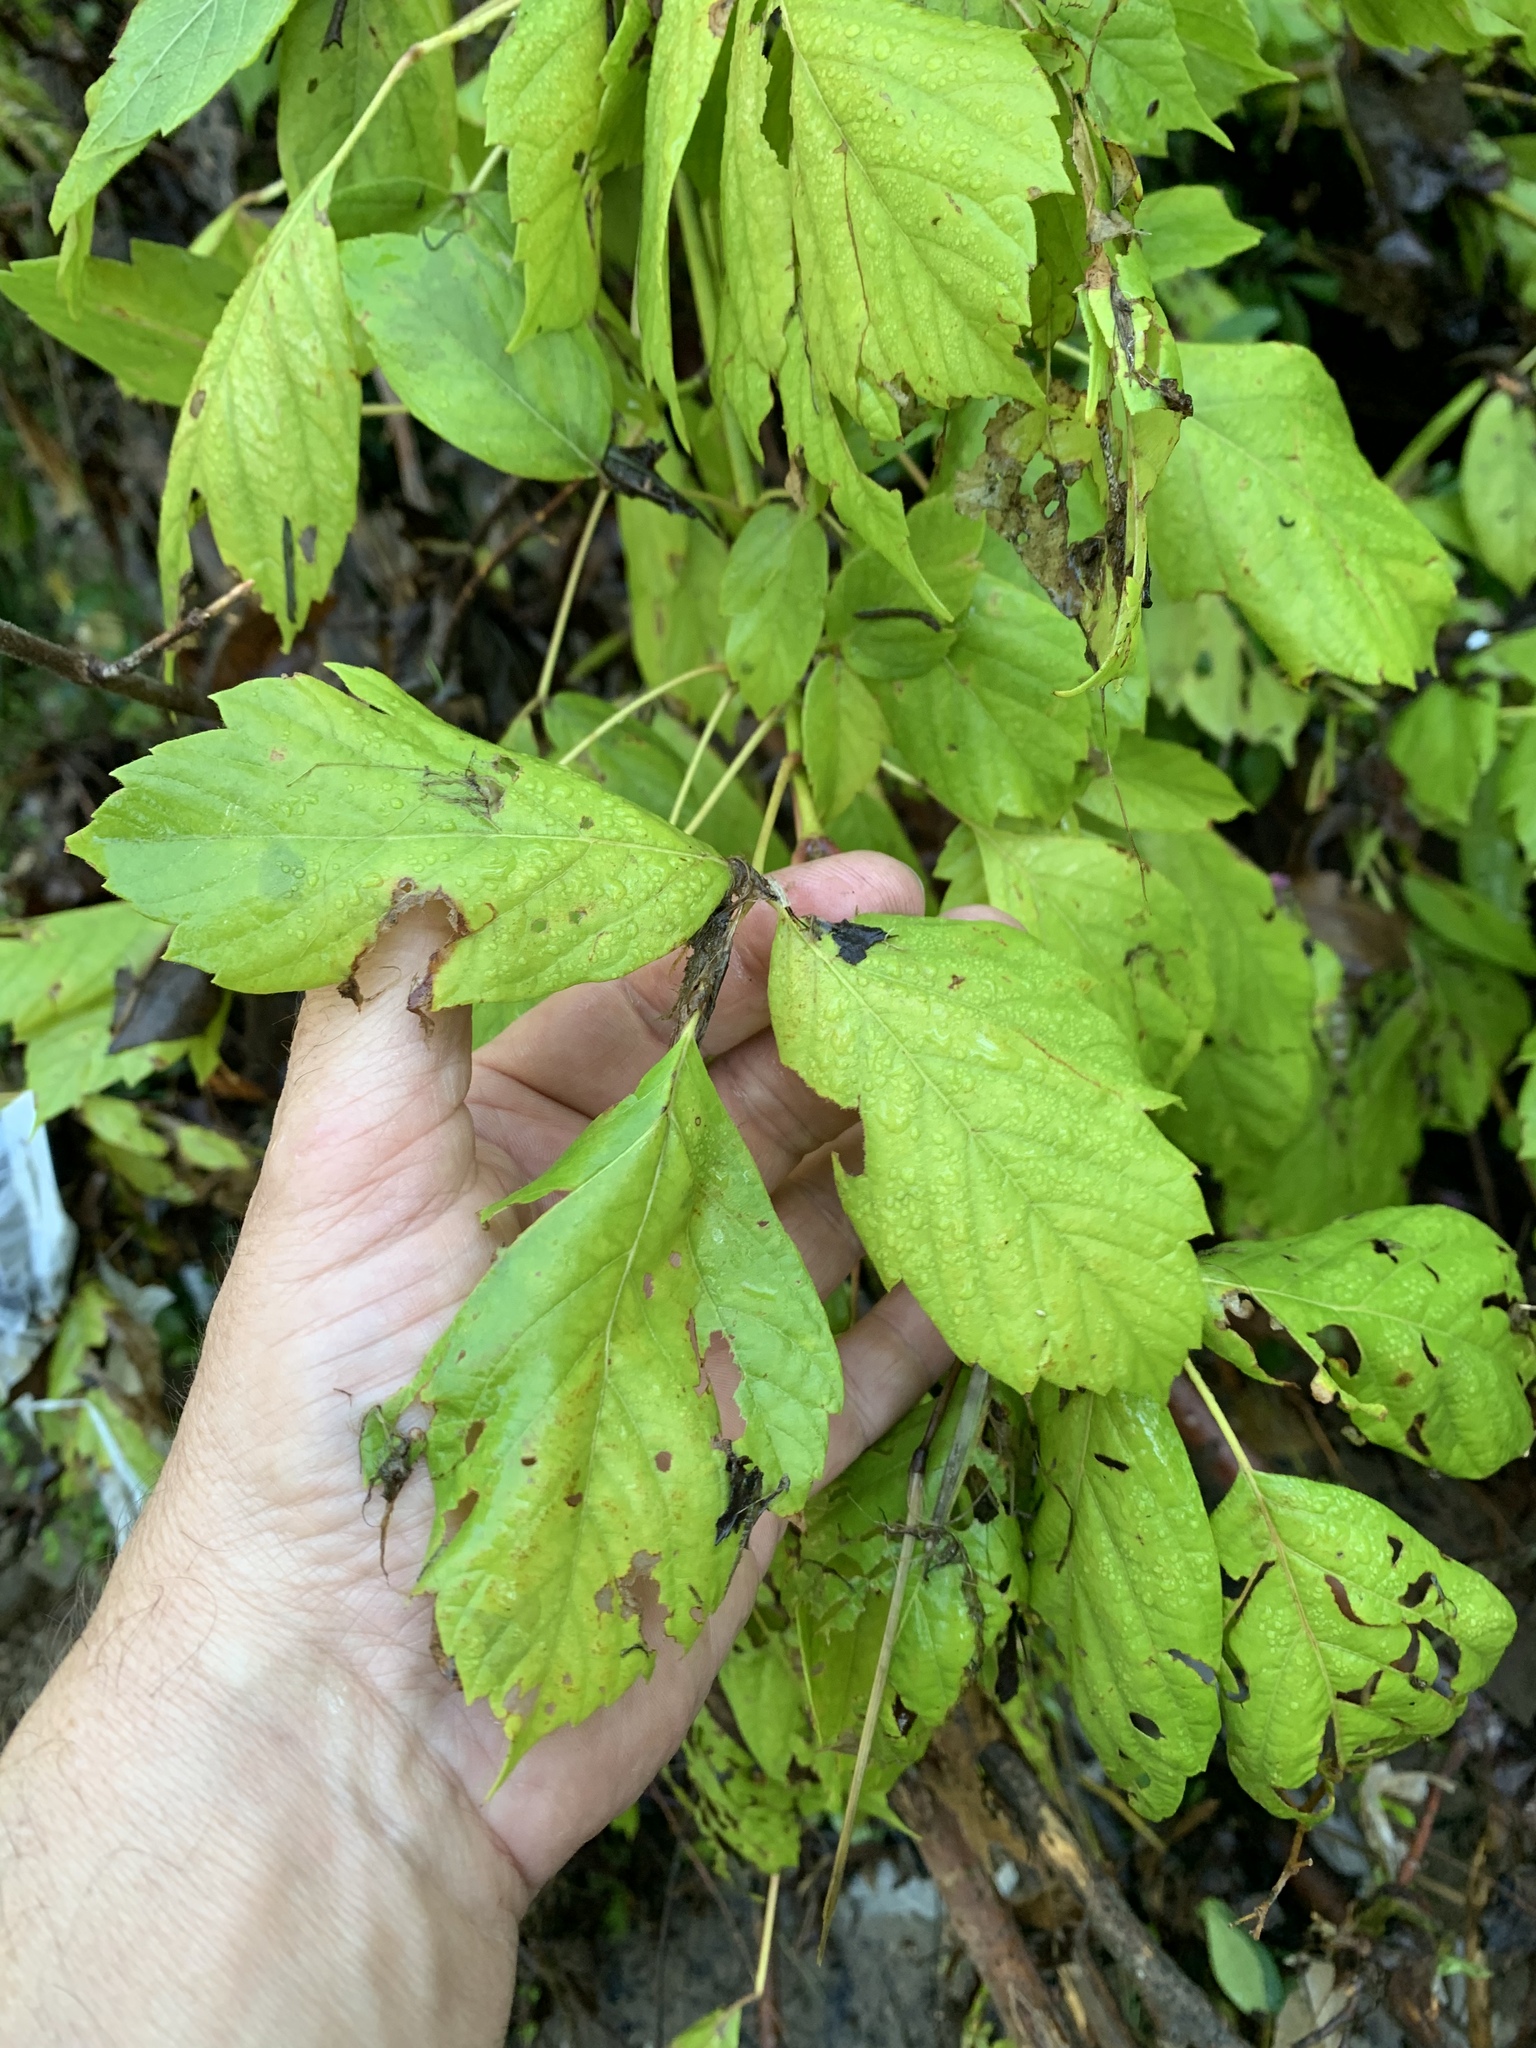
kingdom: Plantae
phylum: Tracheophyta
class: Magnoliopsida
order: Sapindales
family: Sapindaceae
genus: Acer
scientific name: Acer negundo
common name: Ashleaf maple
